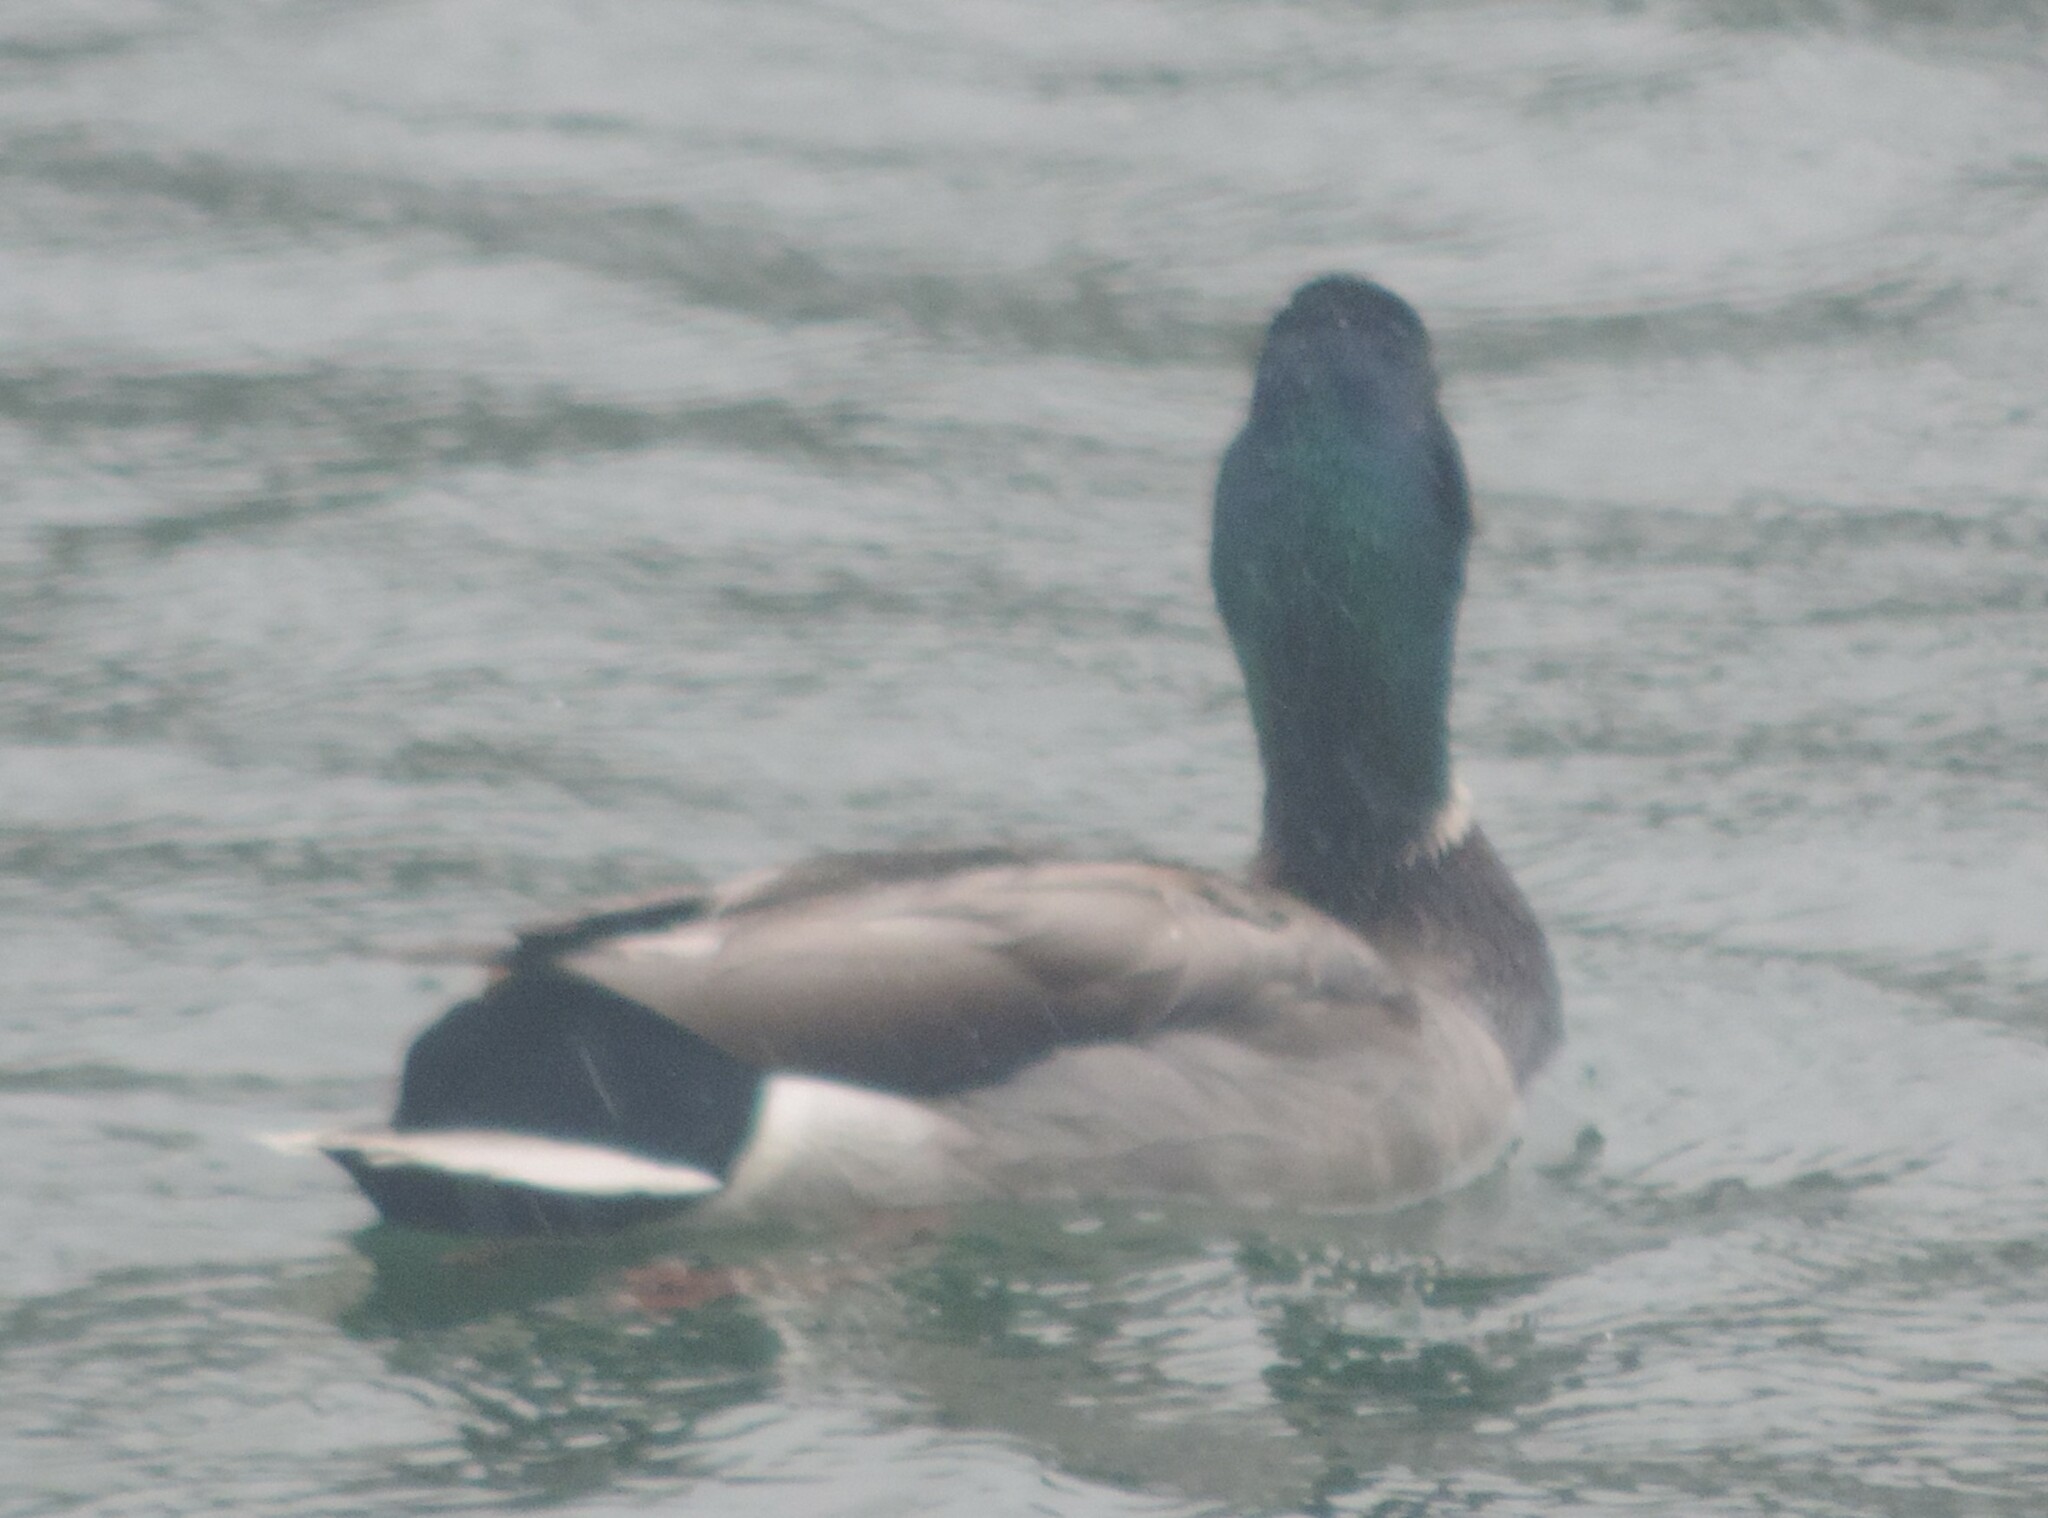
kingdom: Animalia
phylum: Chordata
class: Aves
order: Anseriformes
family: Anatidae
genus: Anas
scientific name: Anas platyrhynchos
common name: Mallard
